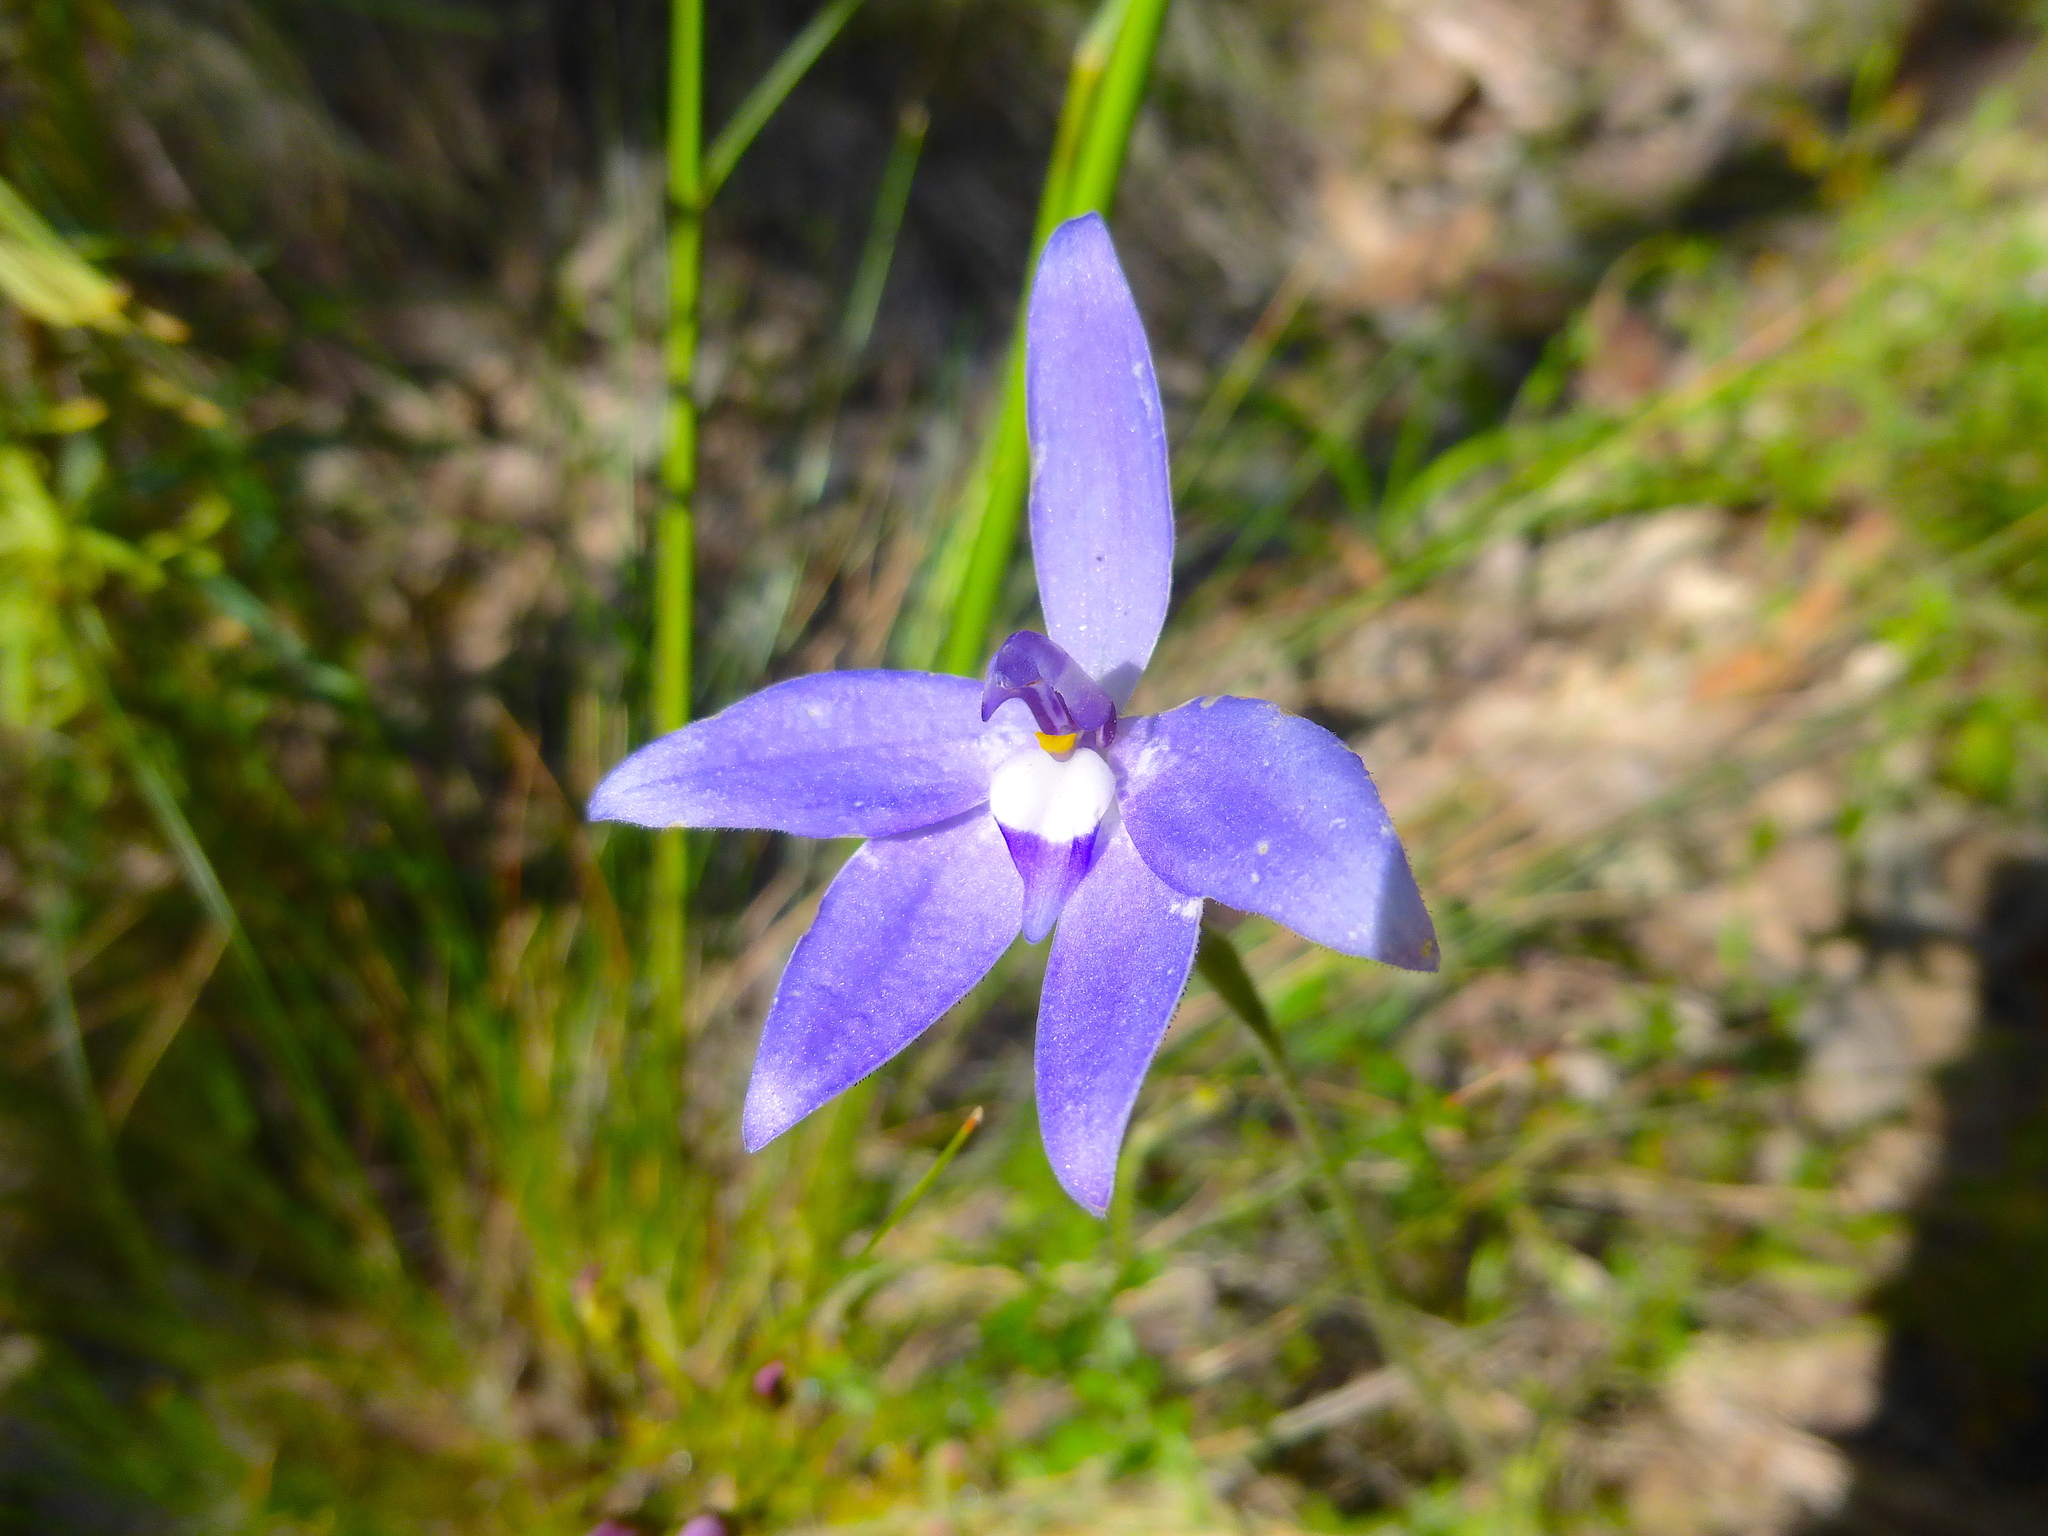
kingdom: Plantae
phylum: Tracheophyta
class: Liliopsida
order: Asparagales
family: Orchidaceae
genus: Caladenia
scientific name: Caladenia major
